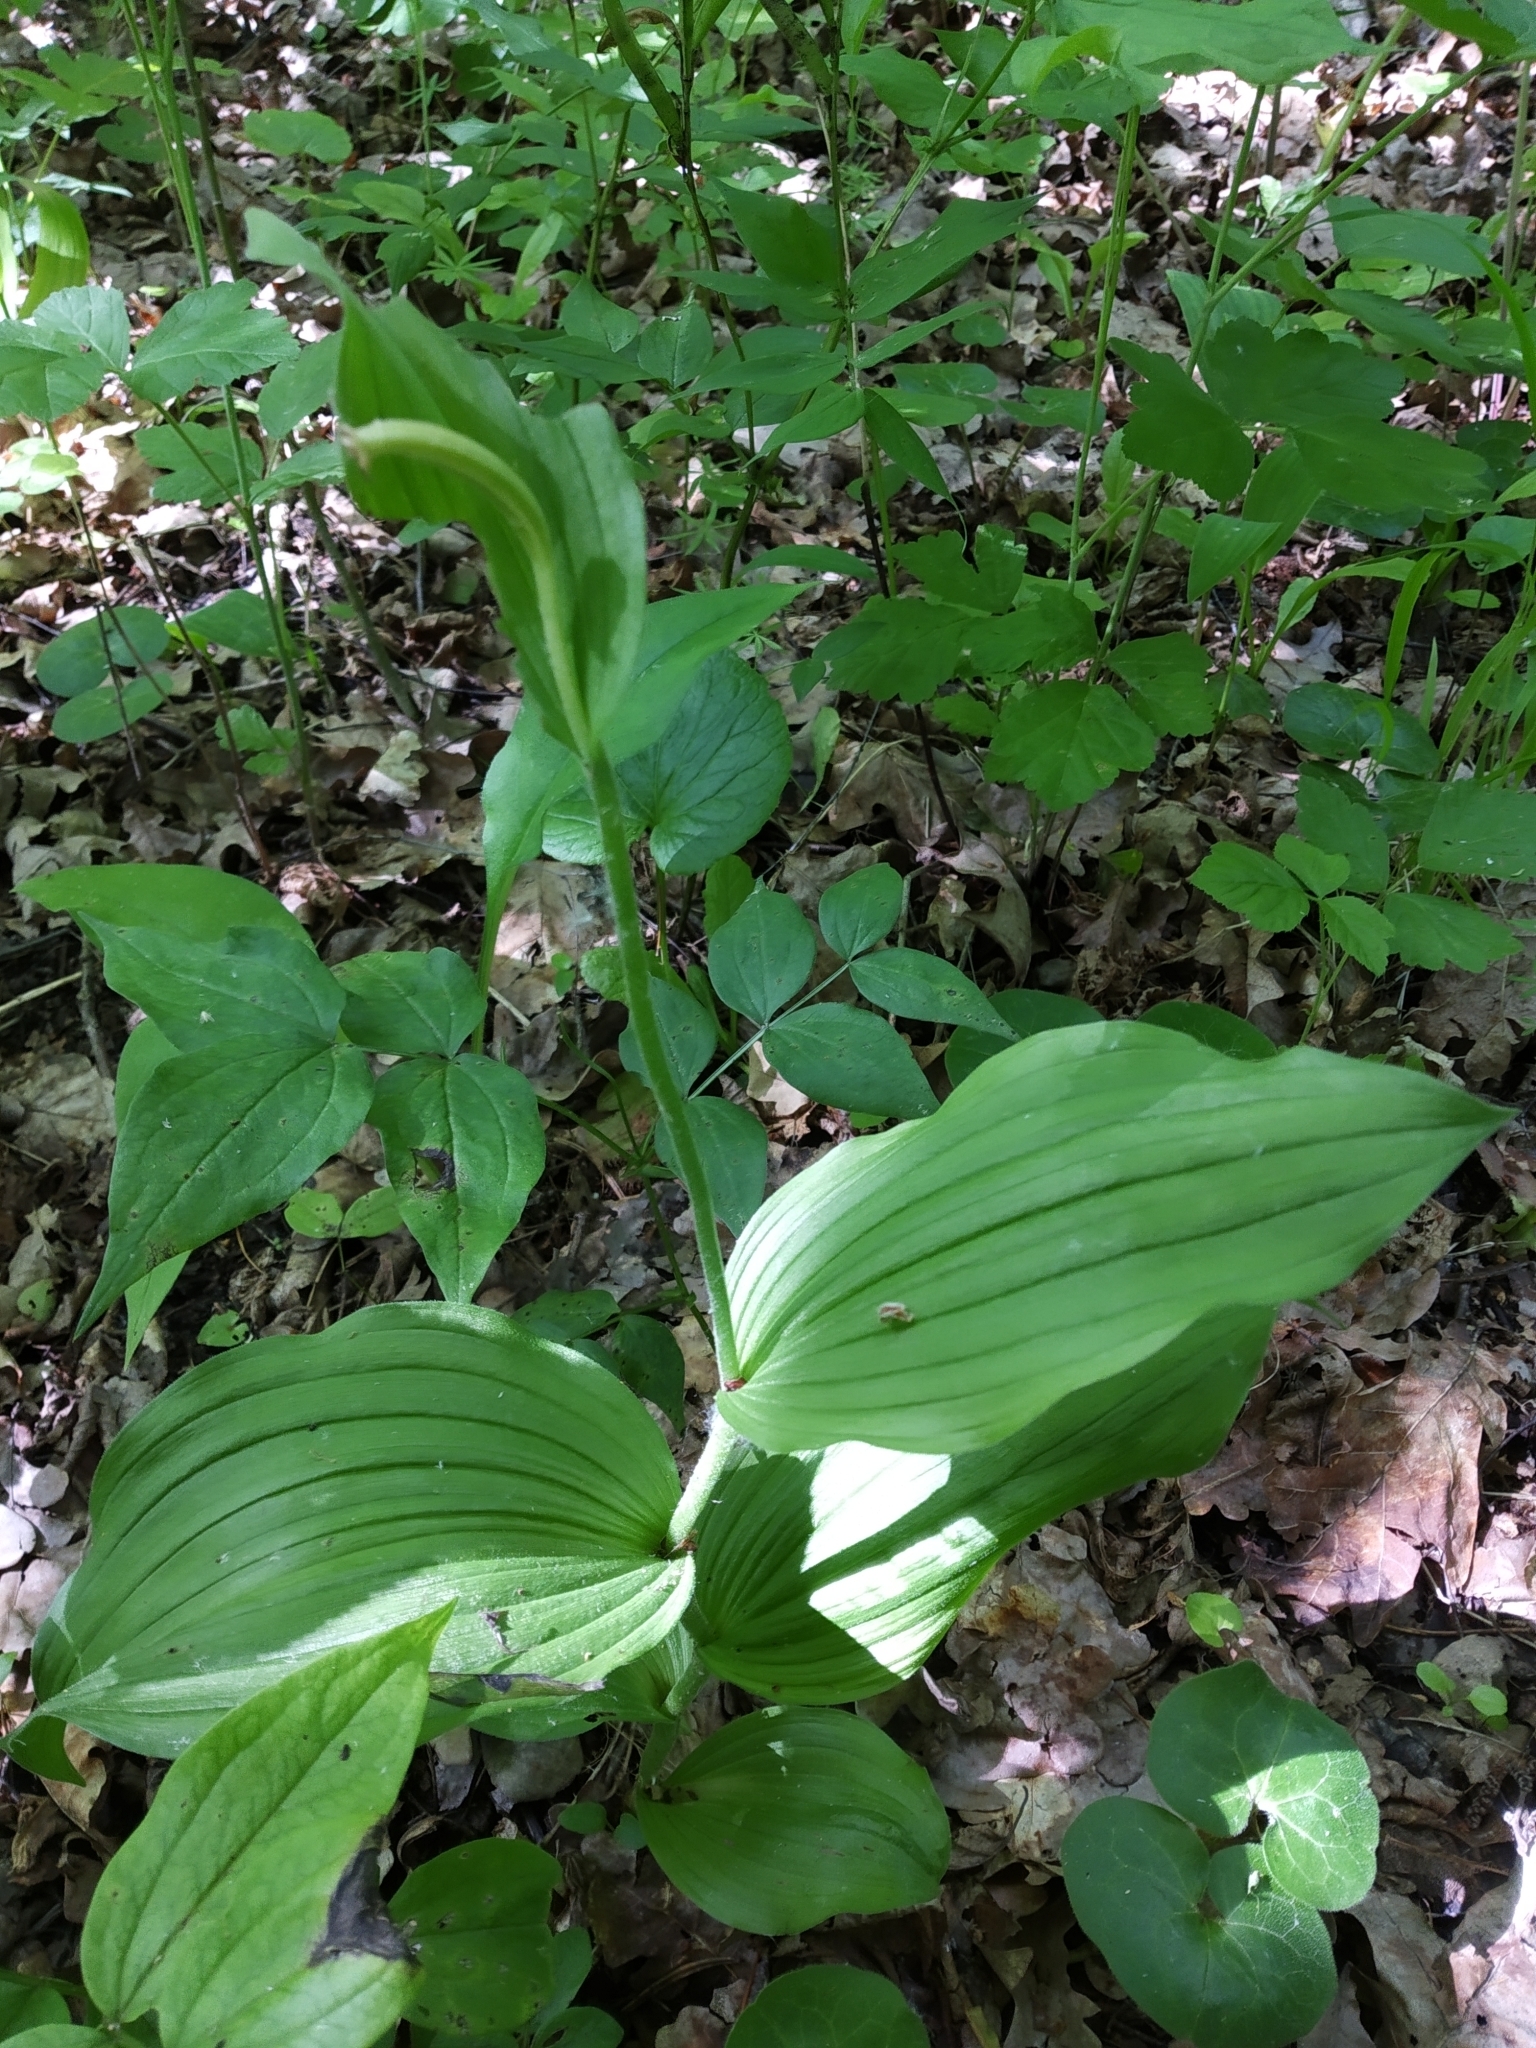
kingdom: Plantae
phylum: Tracheophyta
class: Liliopsida
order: Asparagales
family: Orchidaceae
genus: Cypripedium
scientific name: Cypripedium calceolus
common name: Lady's-slipper
